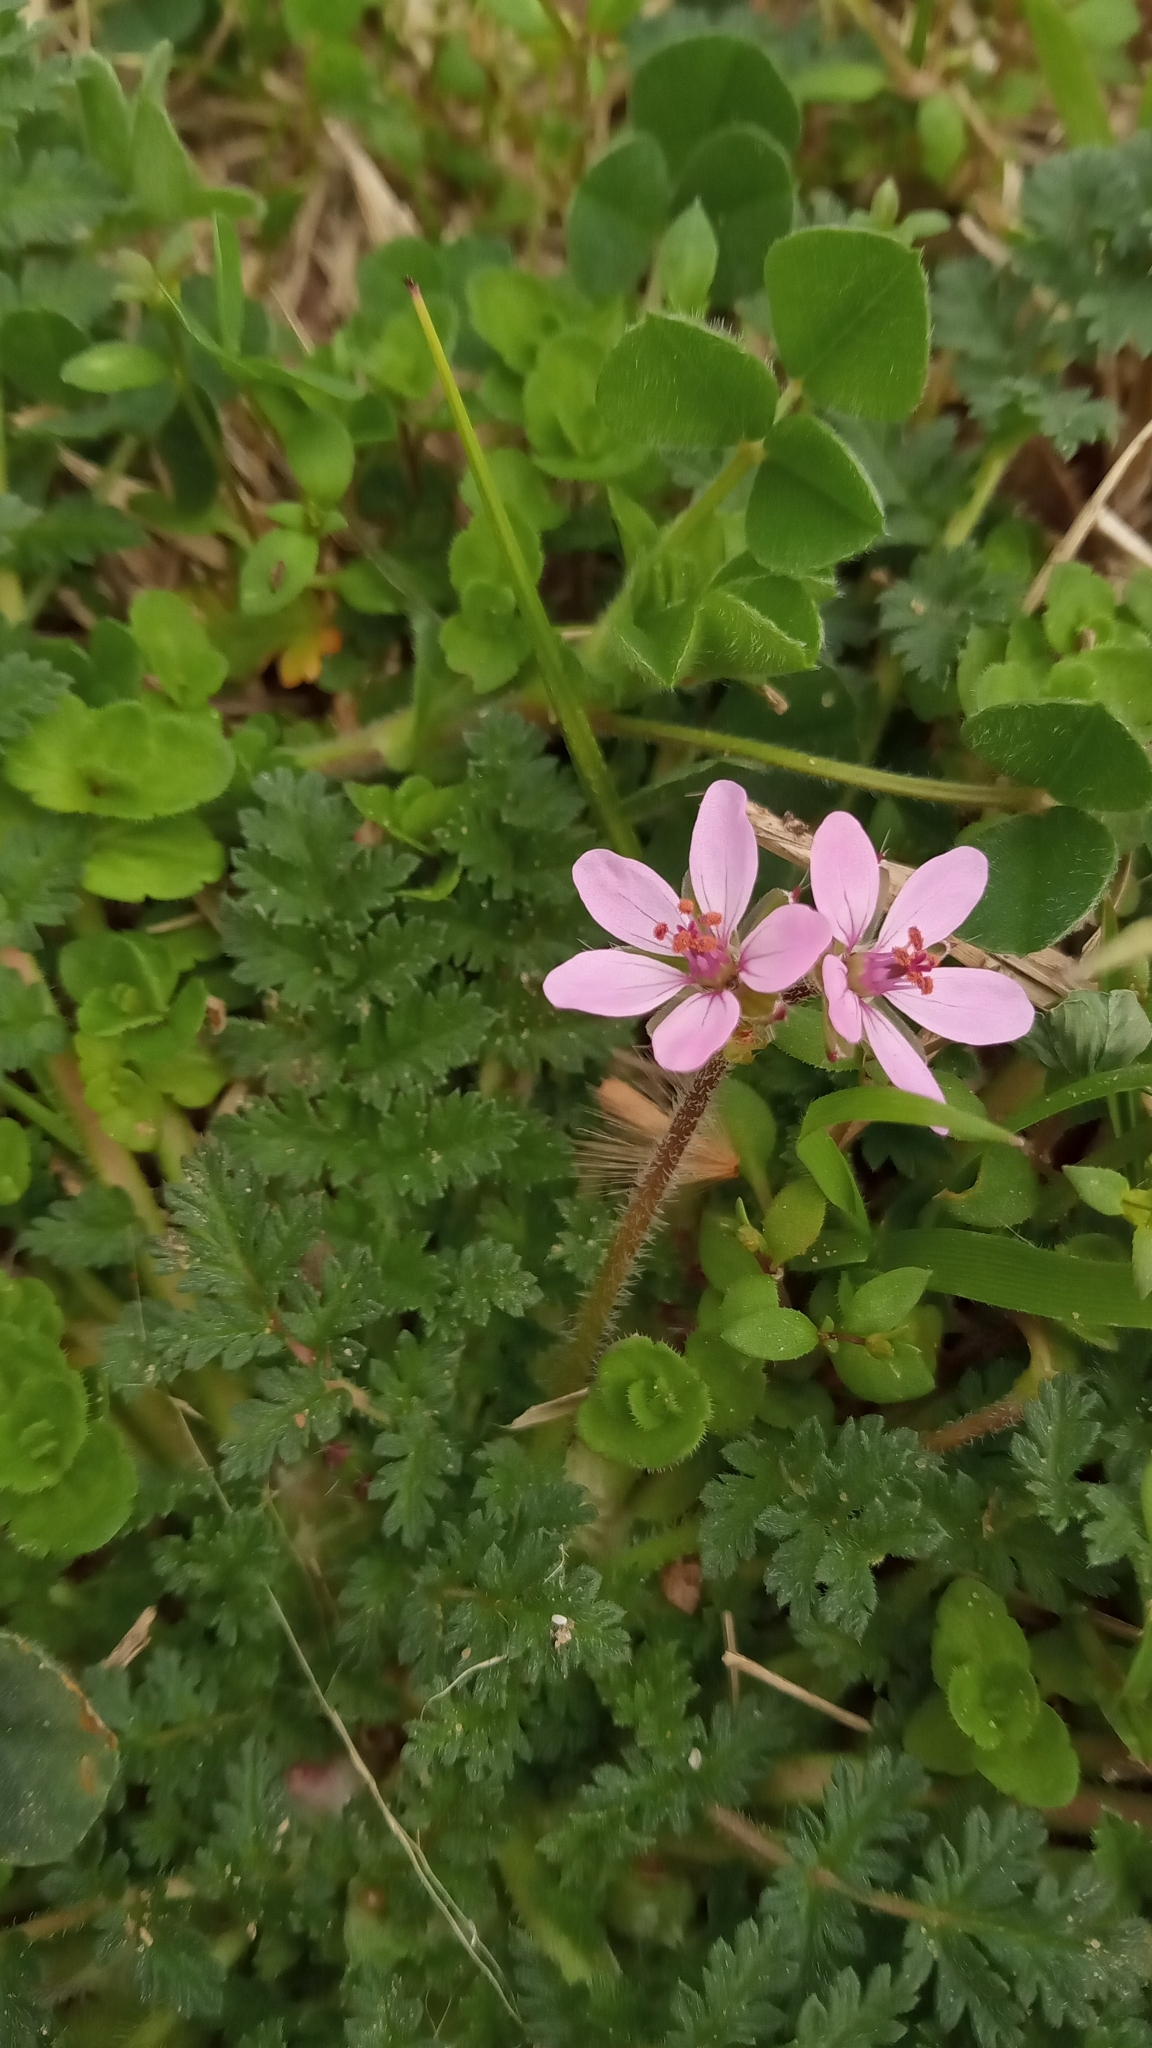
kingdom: Plantae
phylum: Tracheophyta
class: Magnoliopsida
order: Geraniales
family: Geraniaceae
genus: Erodium
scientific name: Erodium cicutarium
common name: Common stork's-bill
